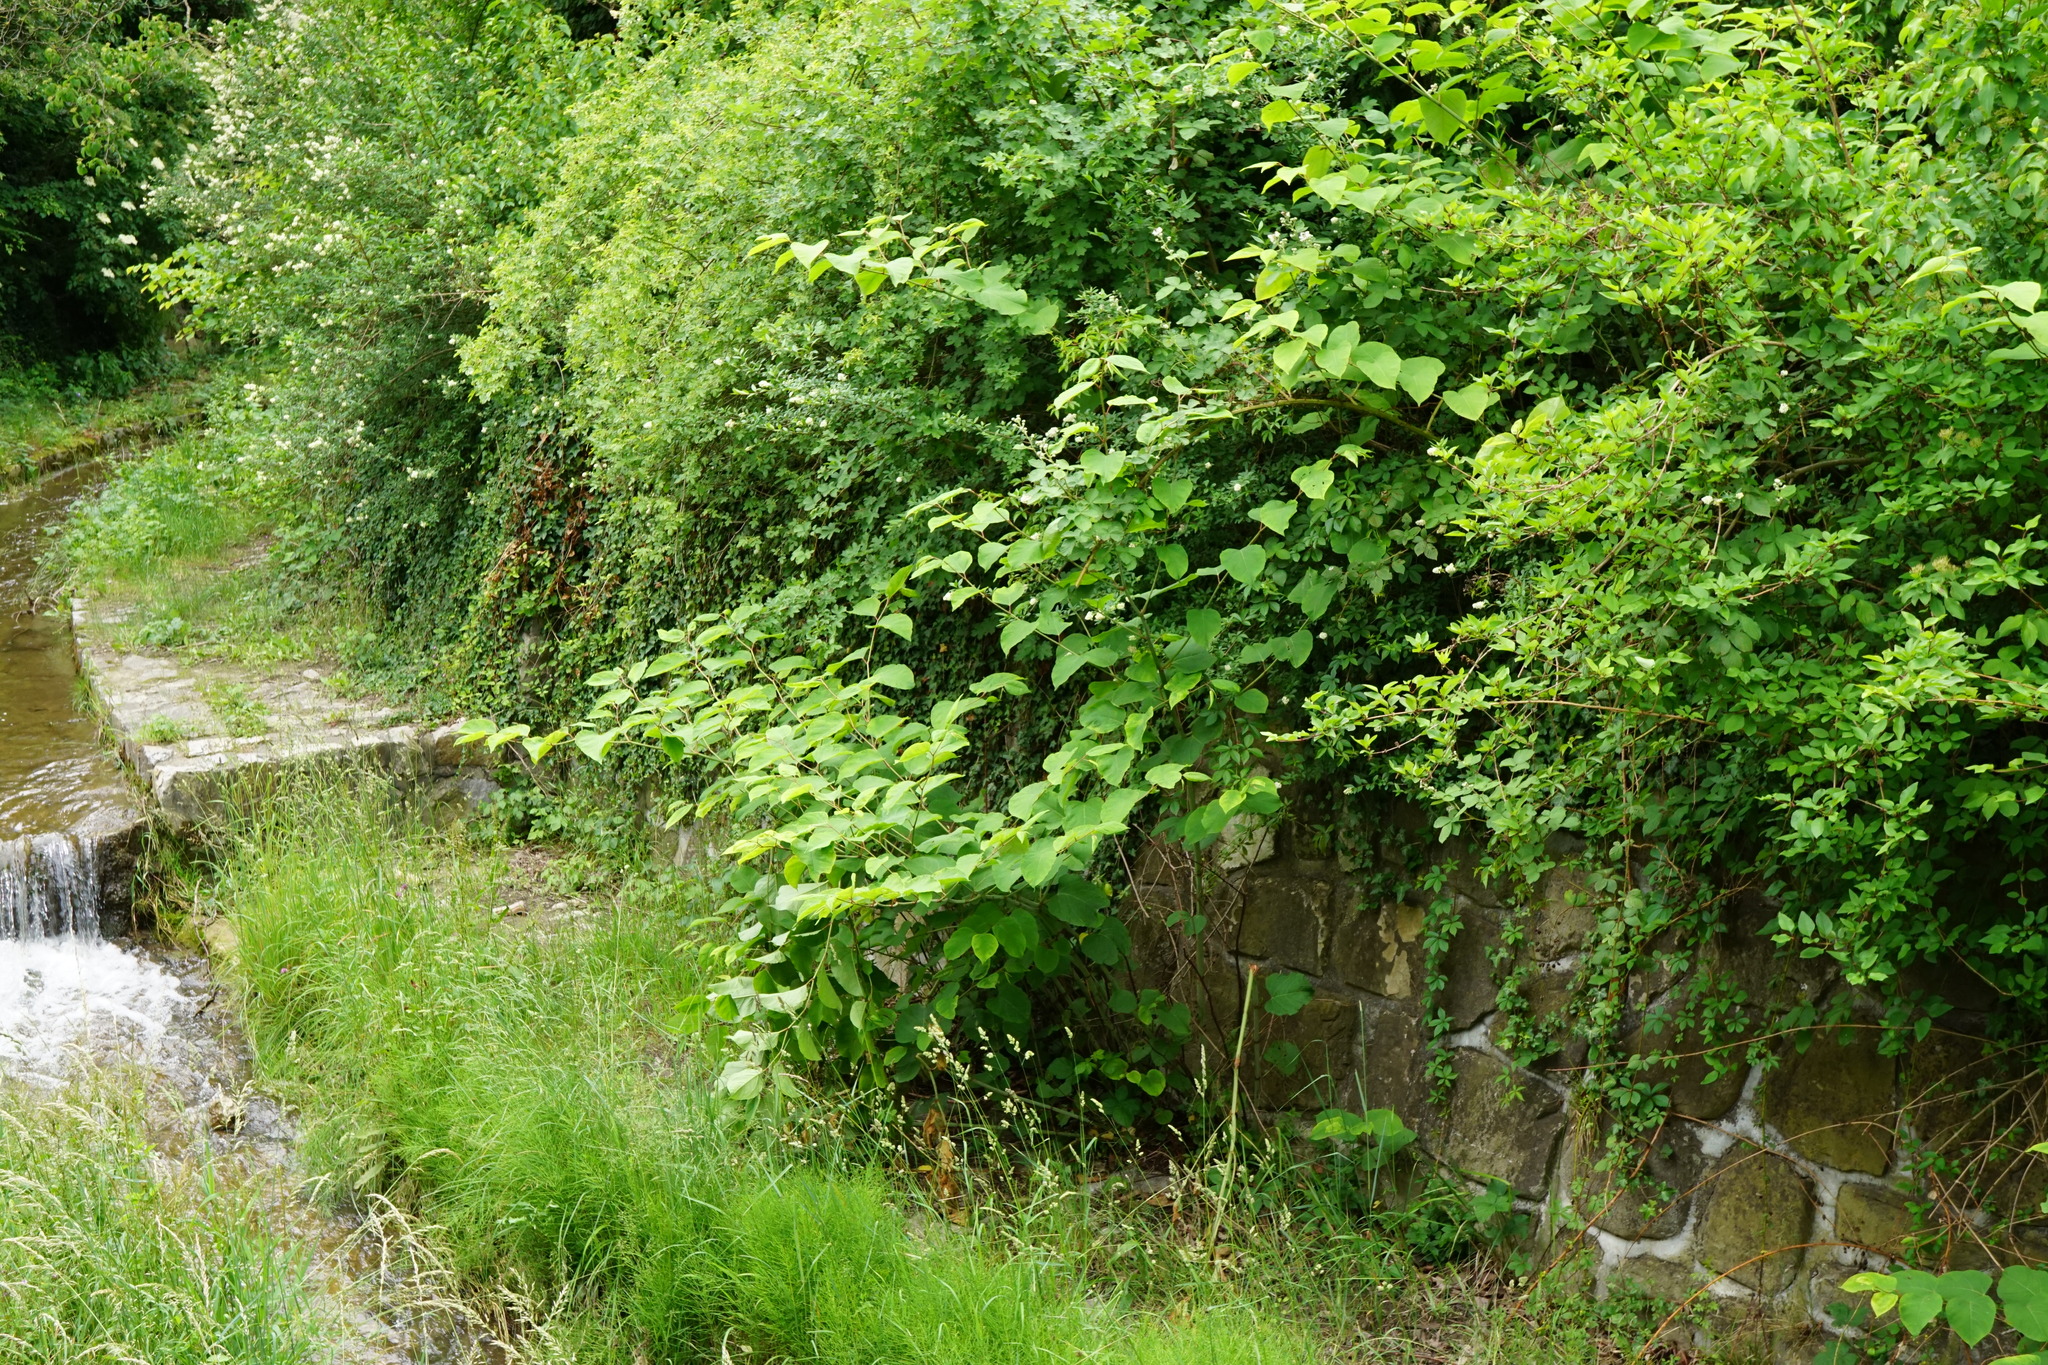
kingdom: Plantae
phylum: Tracheophyta
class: Magnoliopsida
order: Caryophyllales
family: Polygonaceae
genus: Reynoutria
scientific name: Reynoutria bohemica
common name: Bohemian knotweed
